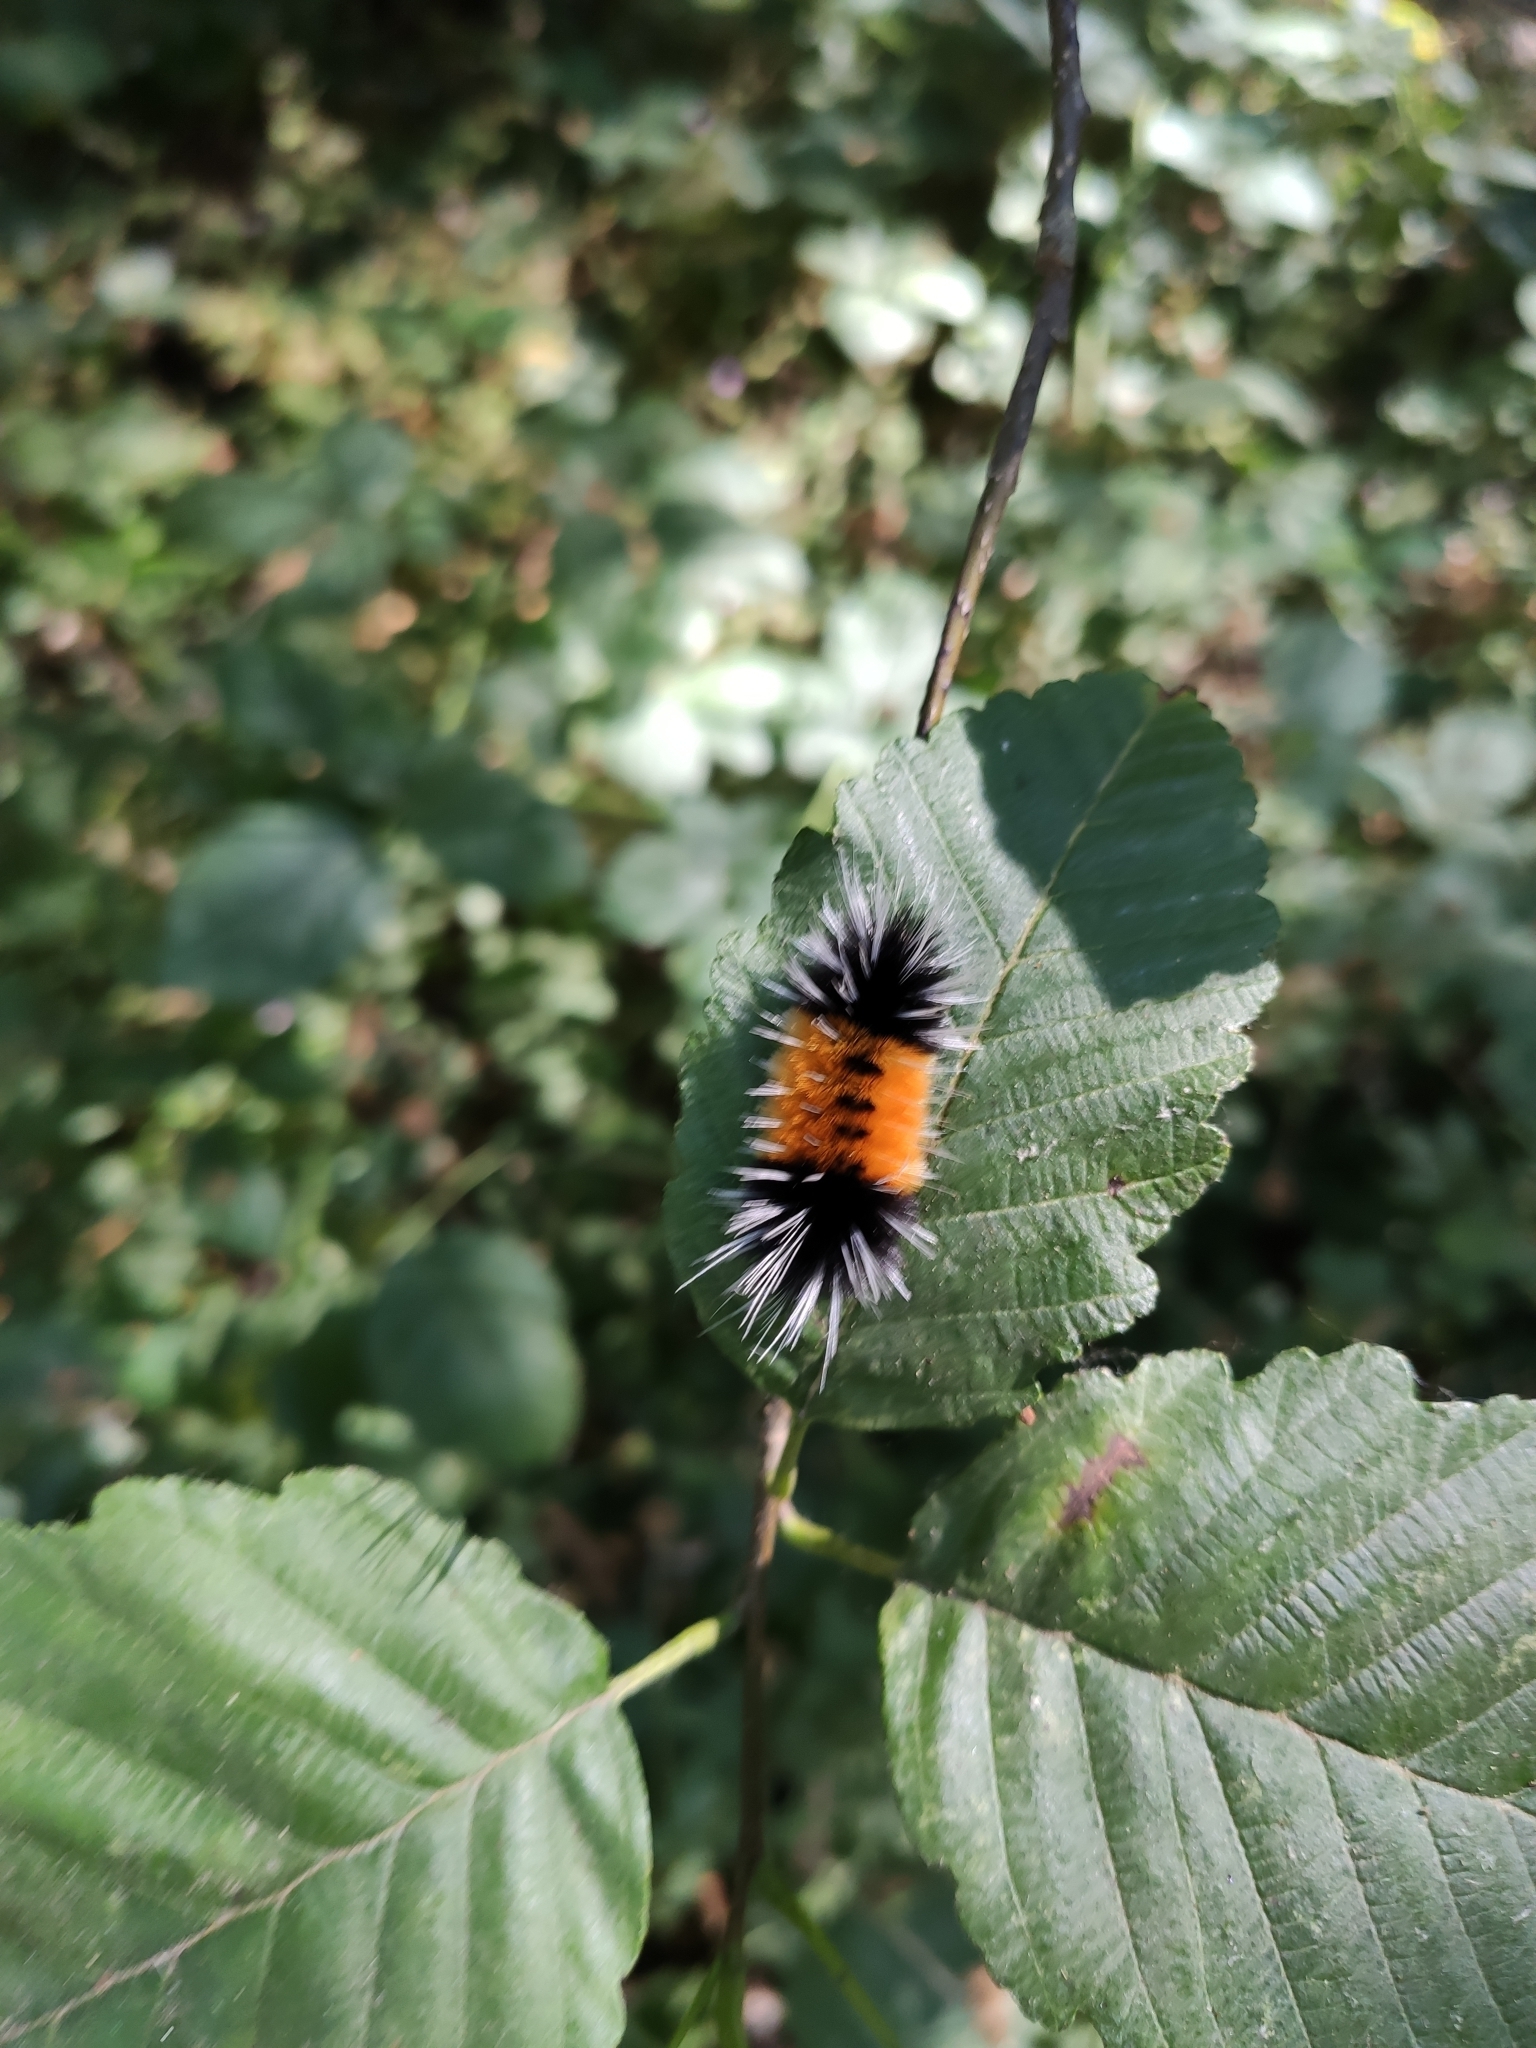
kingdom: Animalia
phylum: Arthropoda
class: Insecta
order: Lepidoptera
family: Erebidae
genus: Lophocampa
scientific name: Lophocampa maculata
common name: Spotted tussock moth
